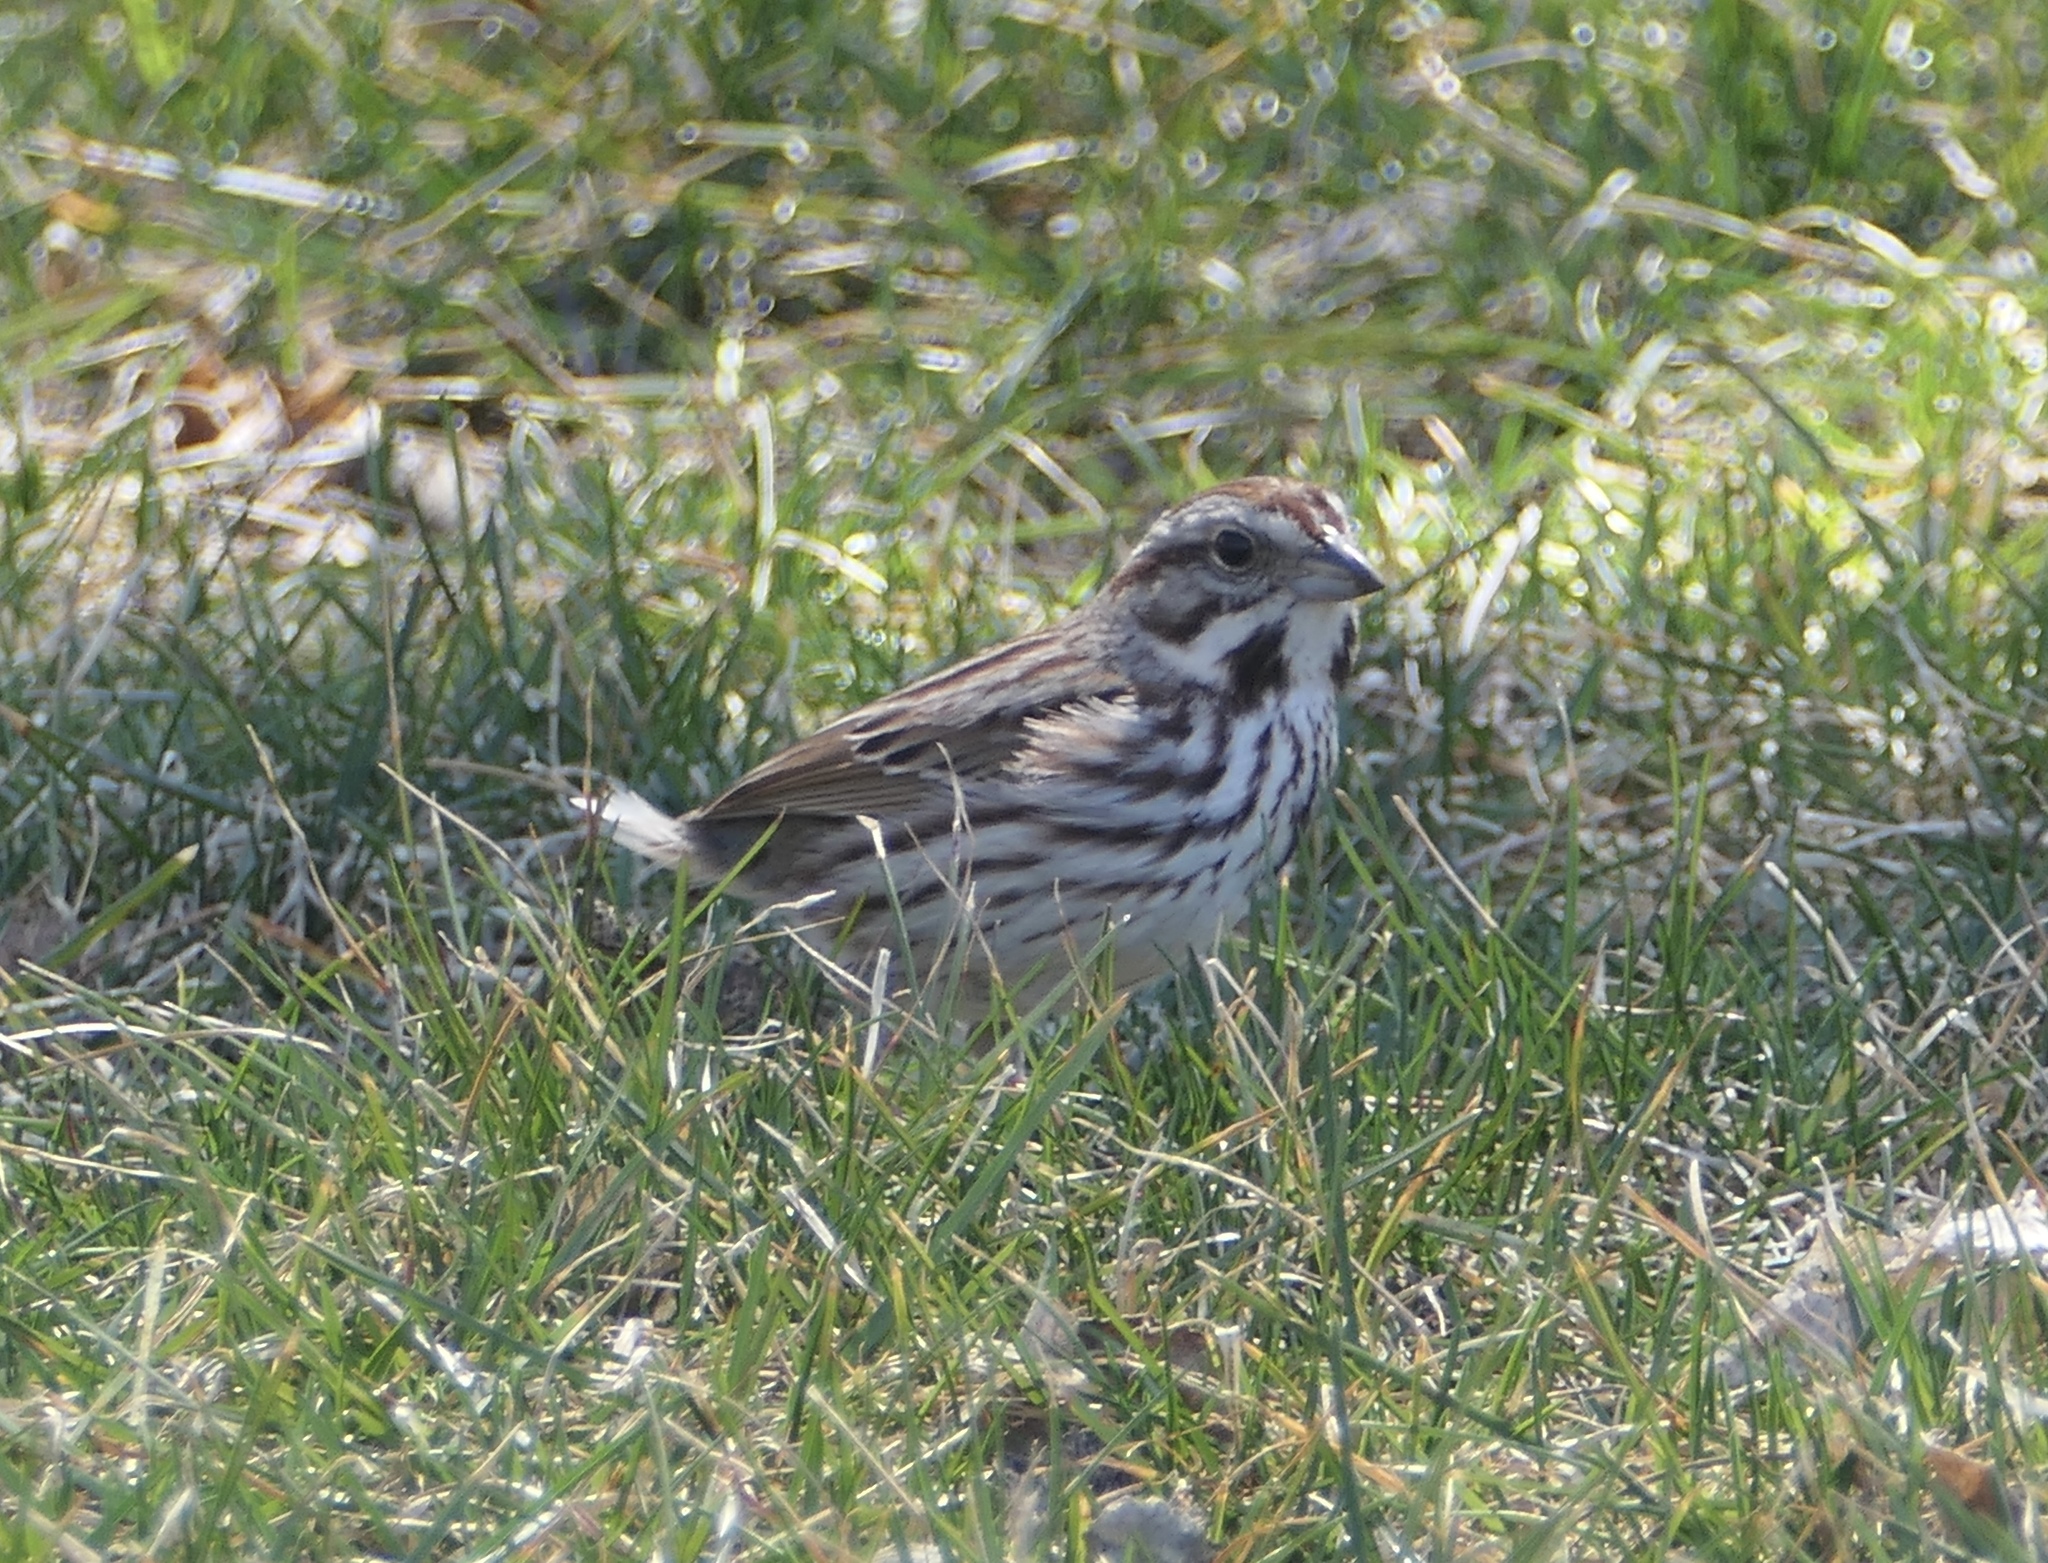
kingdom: Animalia
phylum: Chordata
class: Aves
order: Passeriformes
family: Passerellidae
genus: Melospiza
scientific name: Melospiza melodia
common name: Song sparrow
